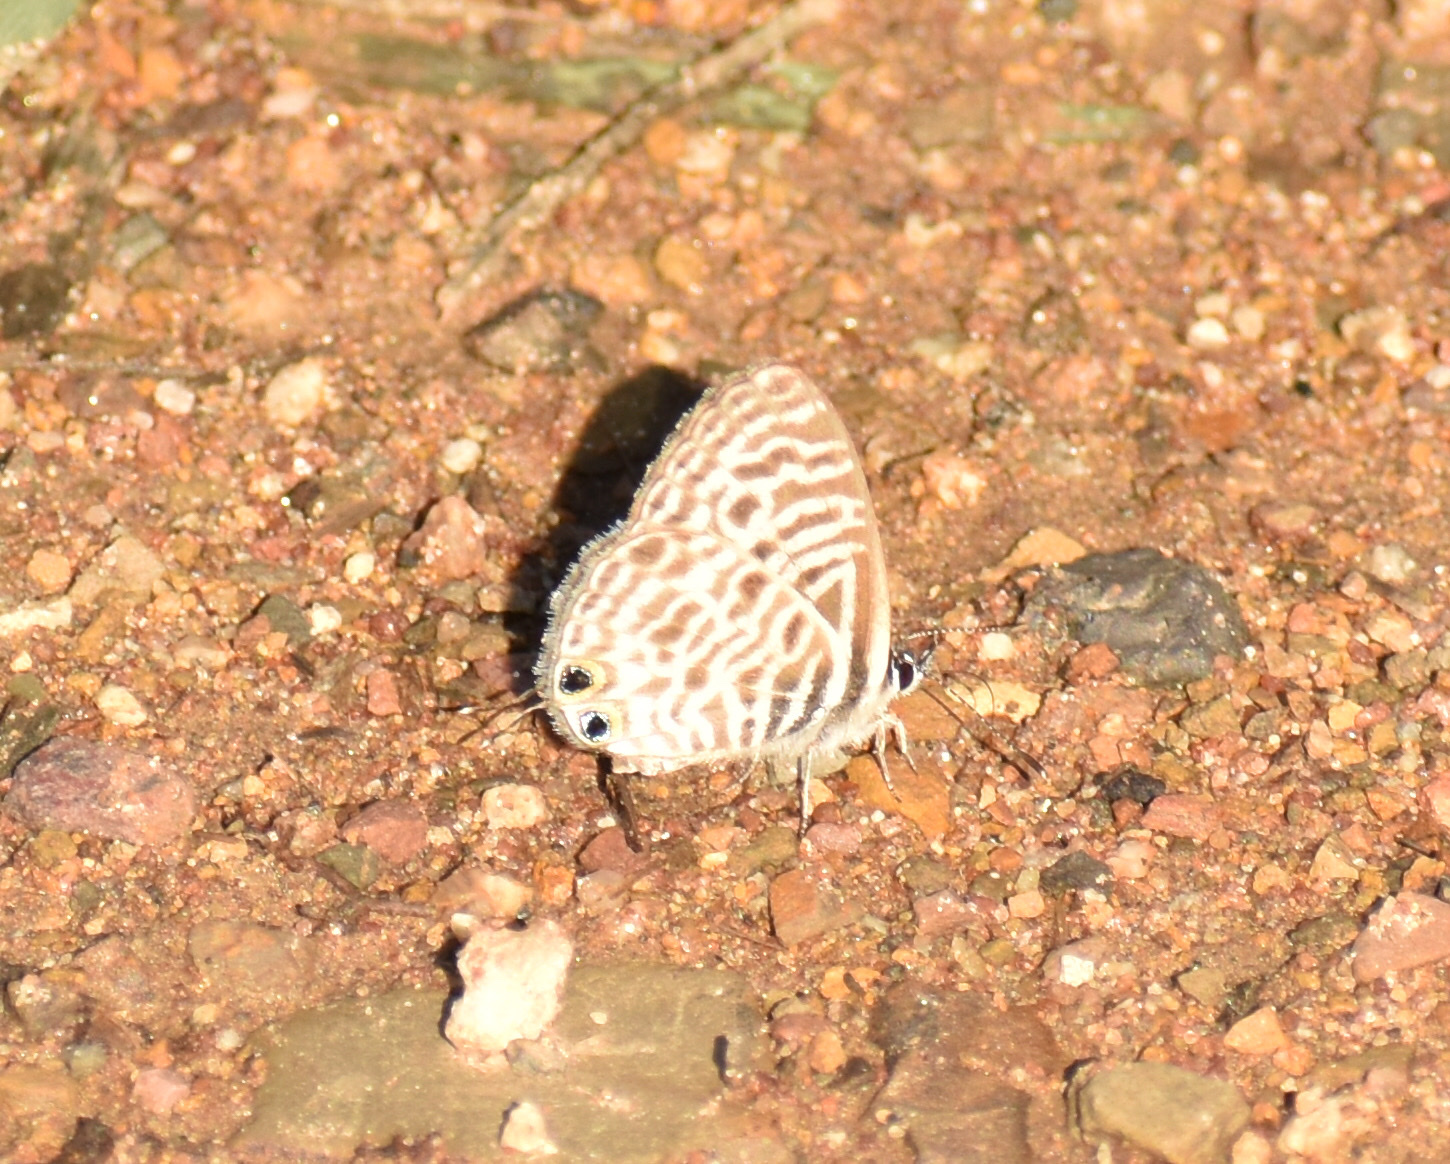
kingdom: Animalia
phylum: Arthropoda
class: Insecta
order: Lepidoptera
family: Lycaenidae
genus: Leptotes
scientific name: Leptotes
